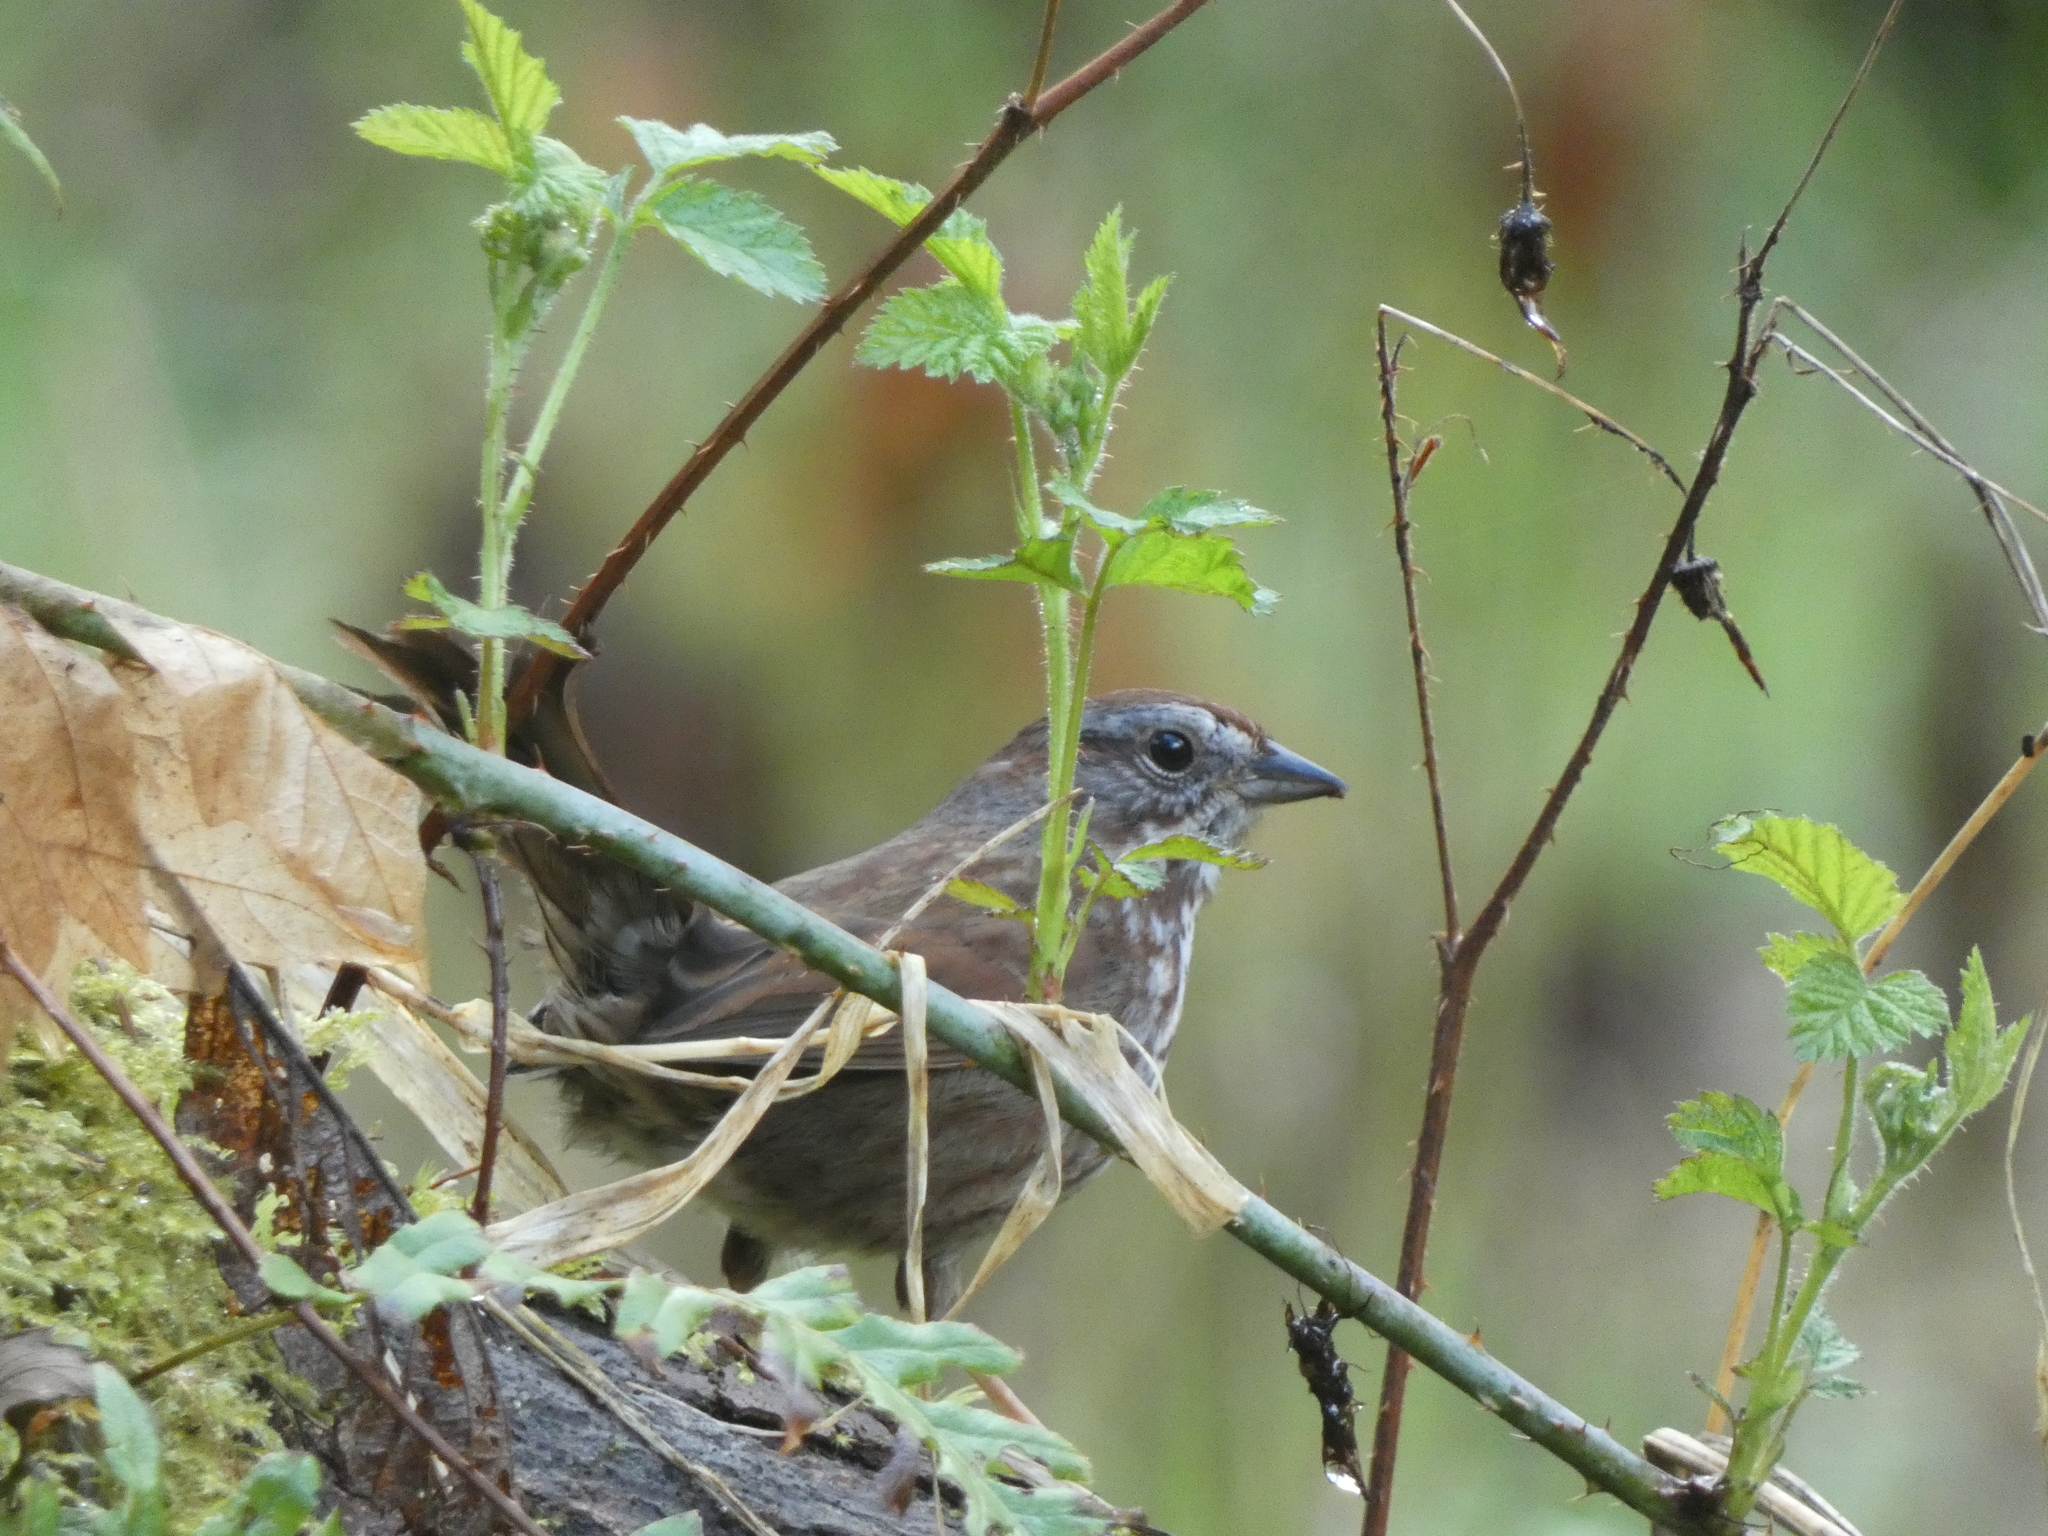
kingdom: Animalia
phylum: Chordata
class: Aves
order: Passeriformes
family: Passerellidae
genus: Melospiza
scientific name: Melospiza melodia
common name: Song sparrow
